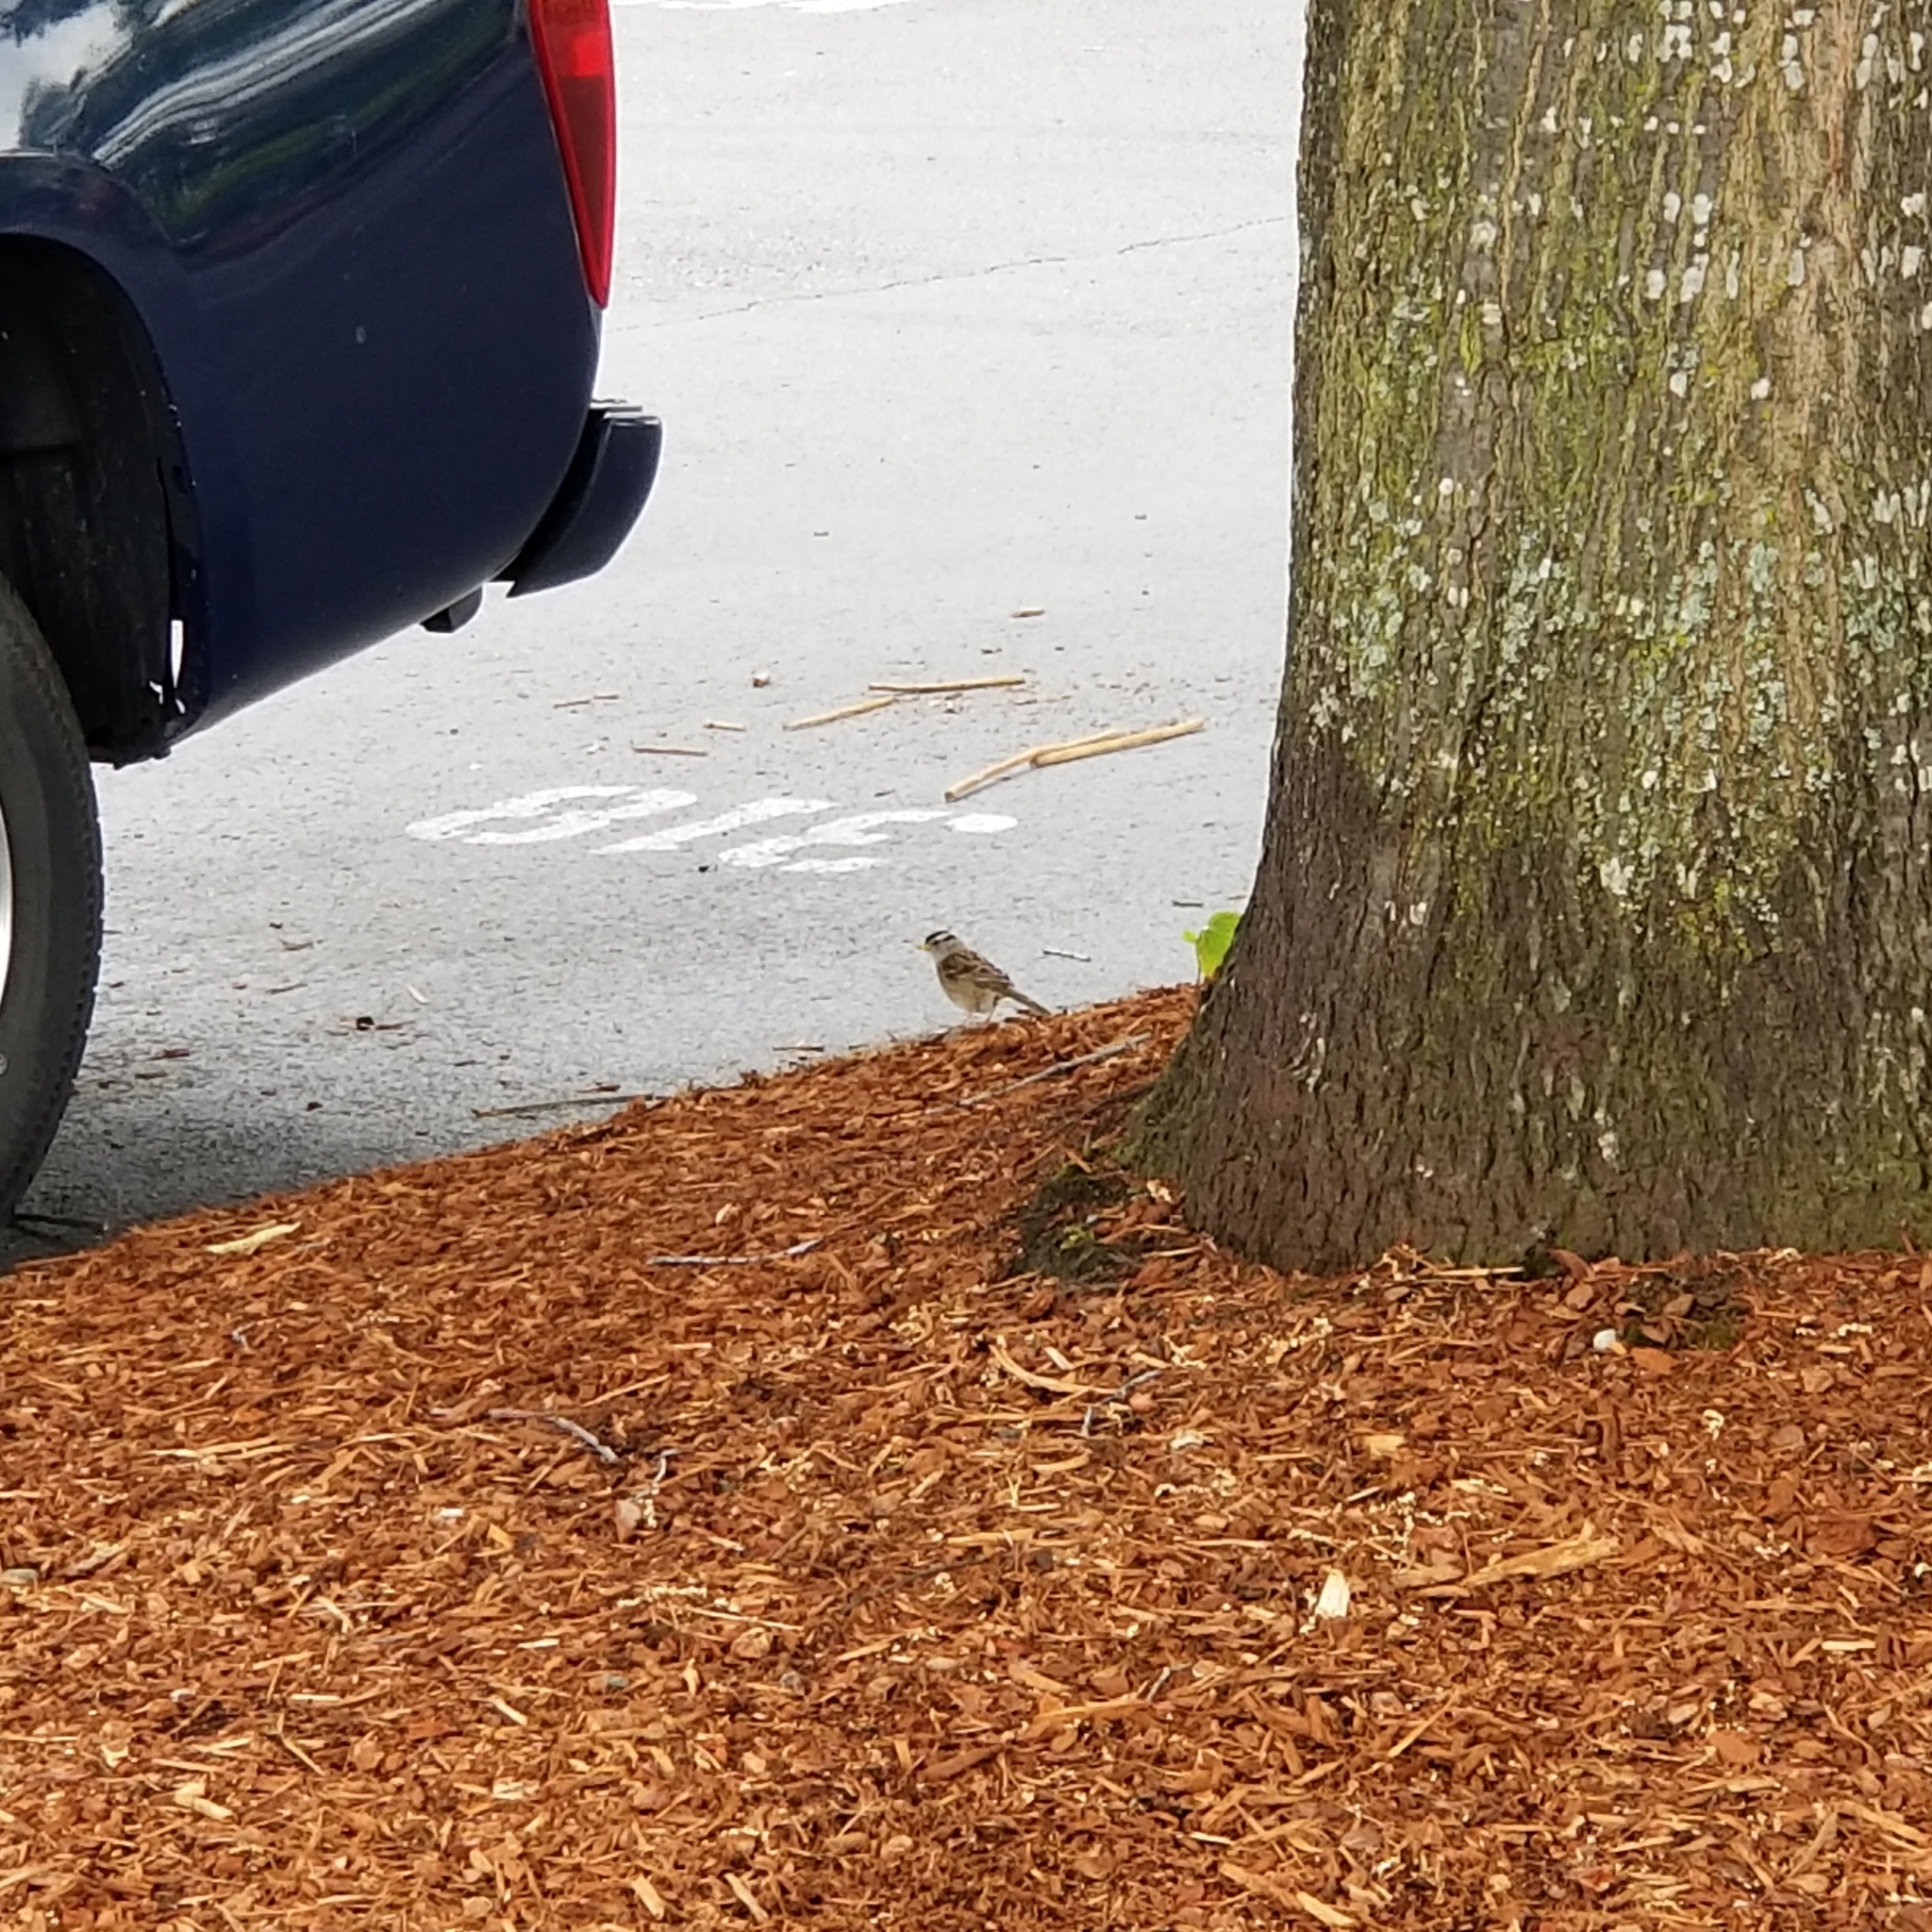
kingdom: Animalia
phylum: Chordata
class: Aves
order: Passeriformes
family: Passerellidae
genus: Zonotrichia
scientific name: Zonotrichia leucophrys
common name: White-crowned sparrow
